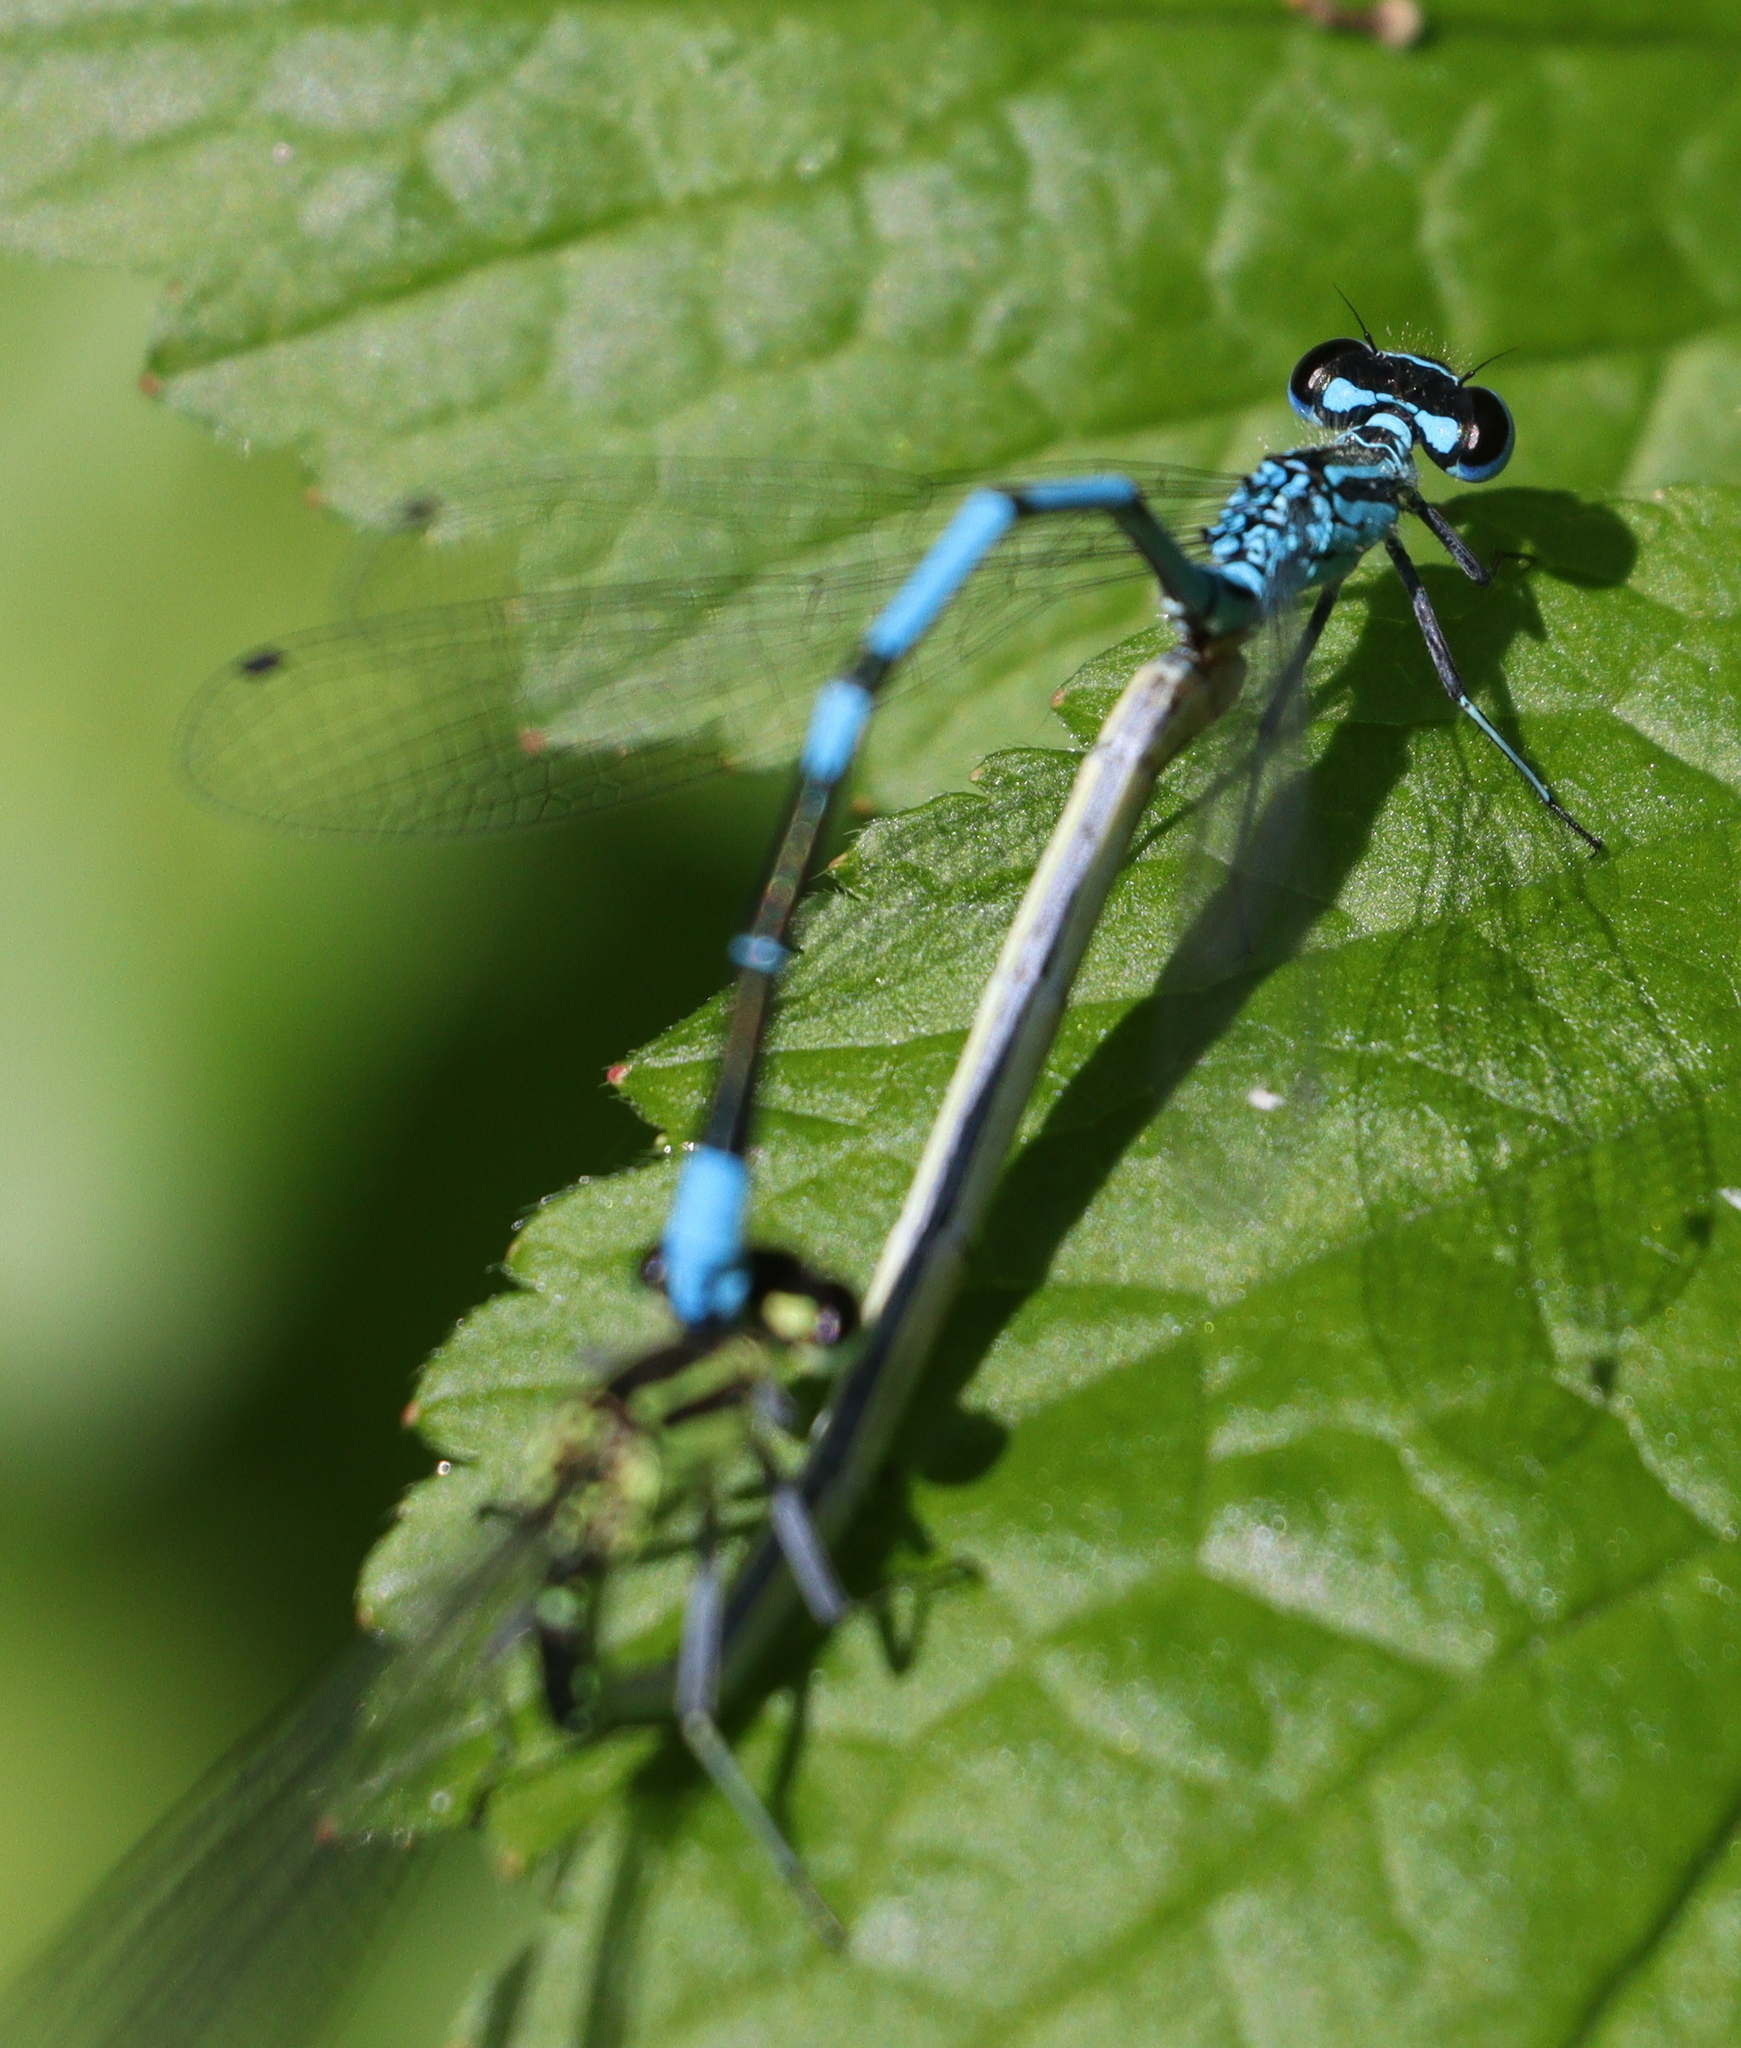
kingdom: Animalia
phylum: Arthropoda
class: Insecta
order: Odonata
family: Coenagrionidae
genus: Coenagrion
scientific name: Coenagrion puella
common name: Azure damselfly
